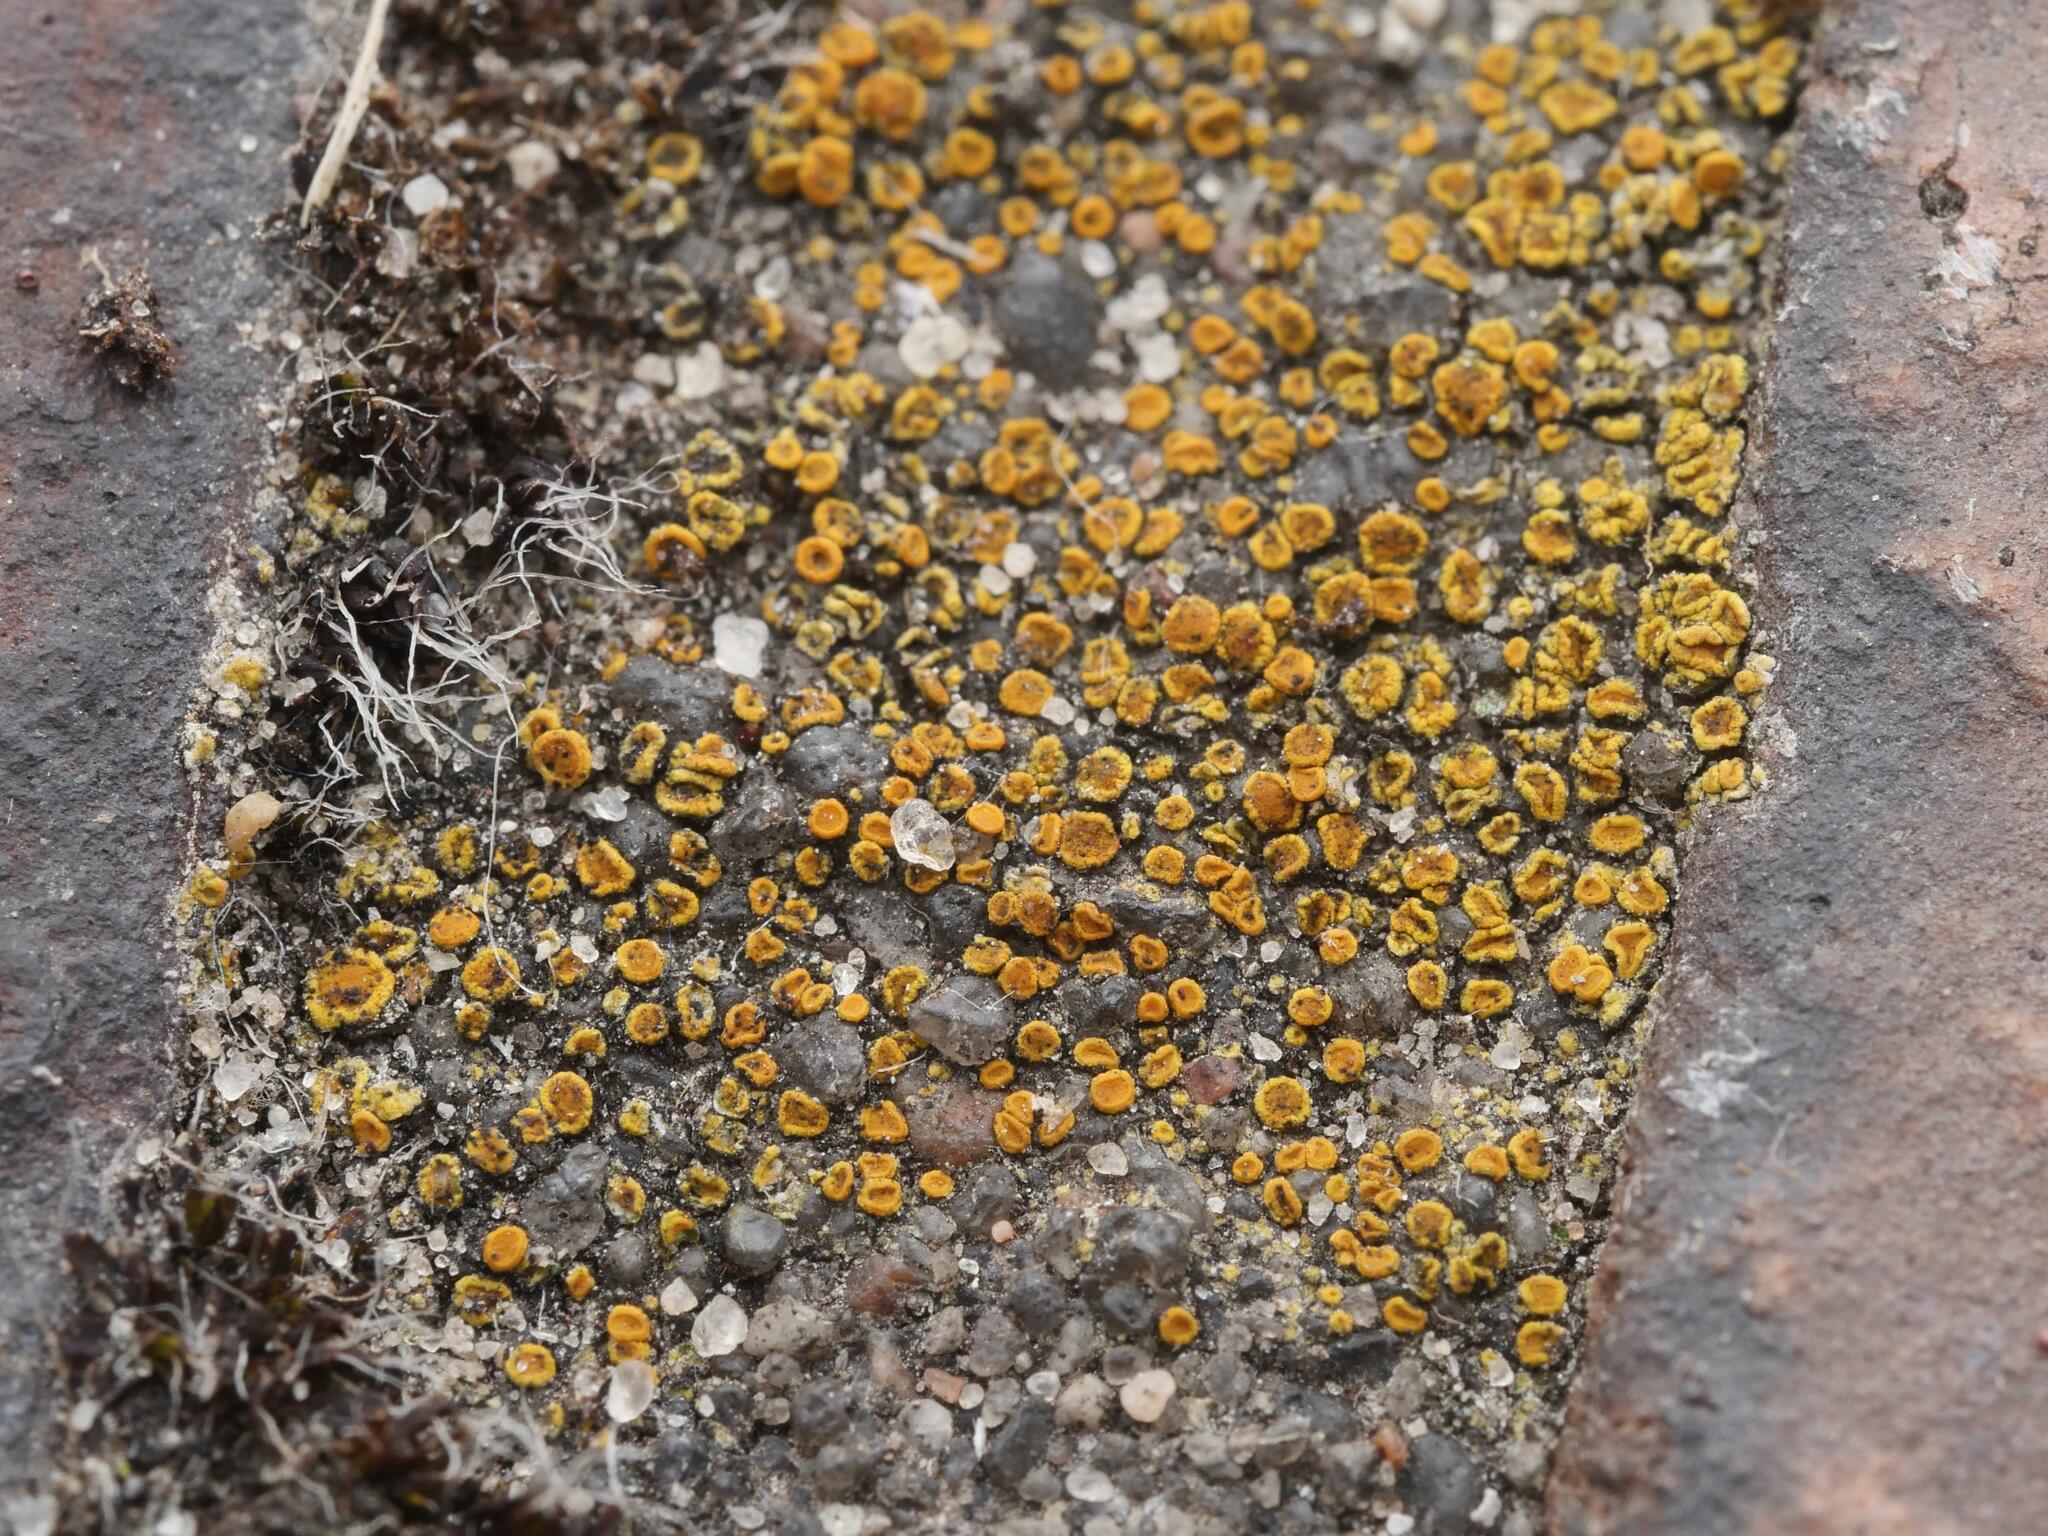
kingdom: Fungi
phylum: Ascomycota
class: Candelariomycetes
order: Candelariales
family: Candelariaceae
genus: Candelariella
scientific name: Candelariella aurella
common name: Hidden goldspeck lichen
